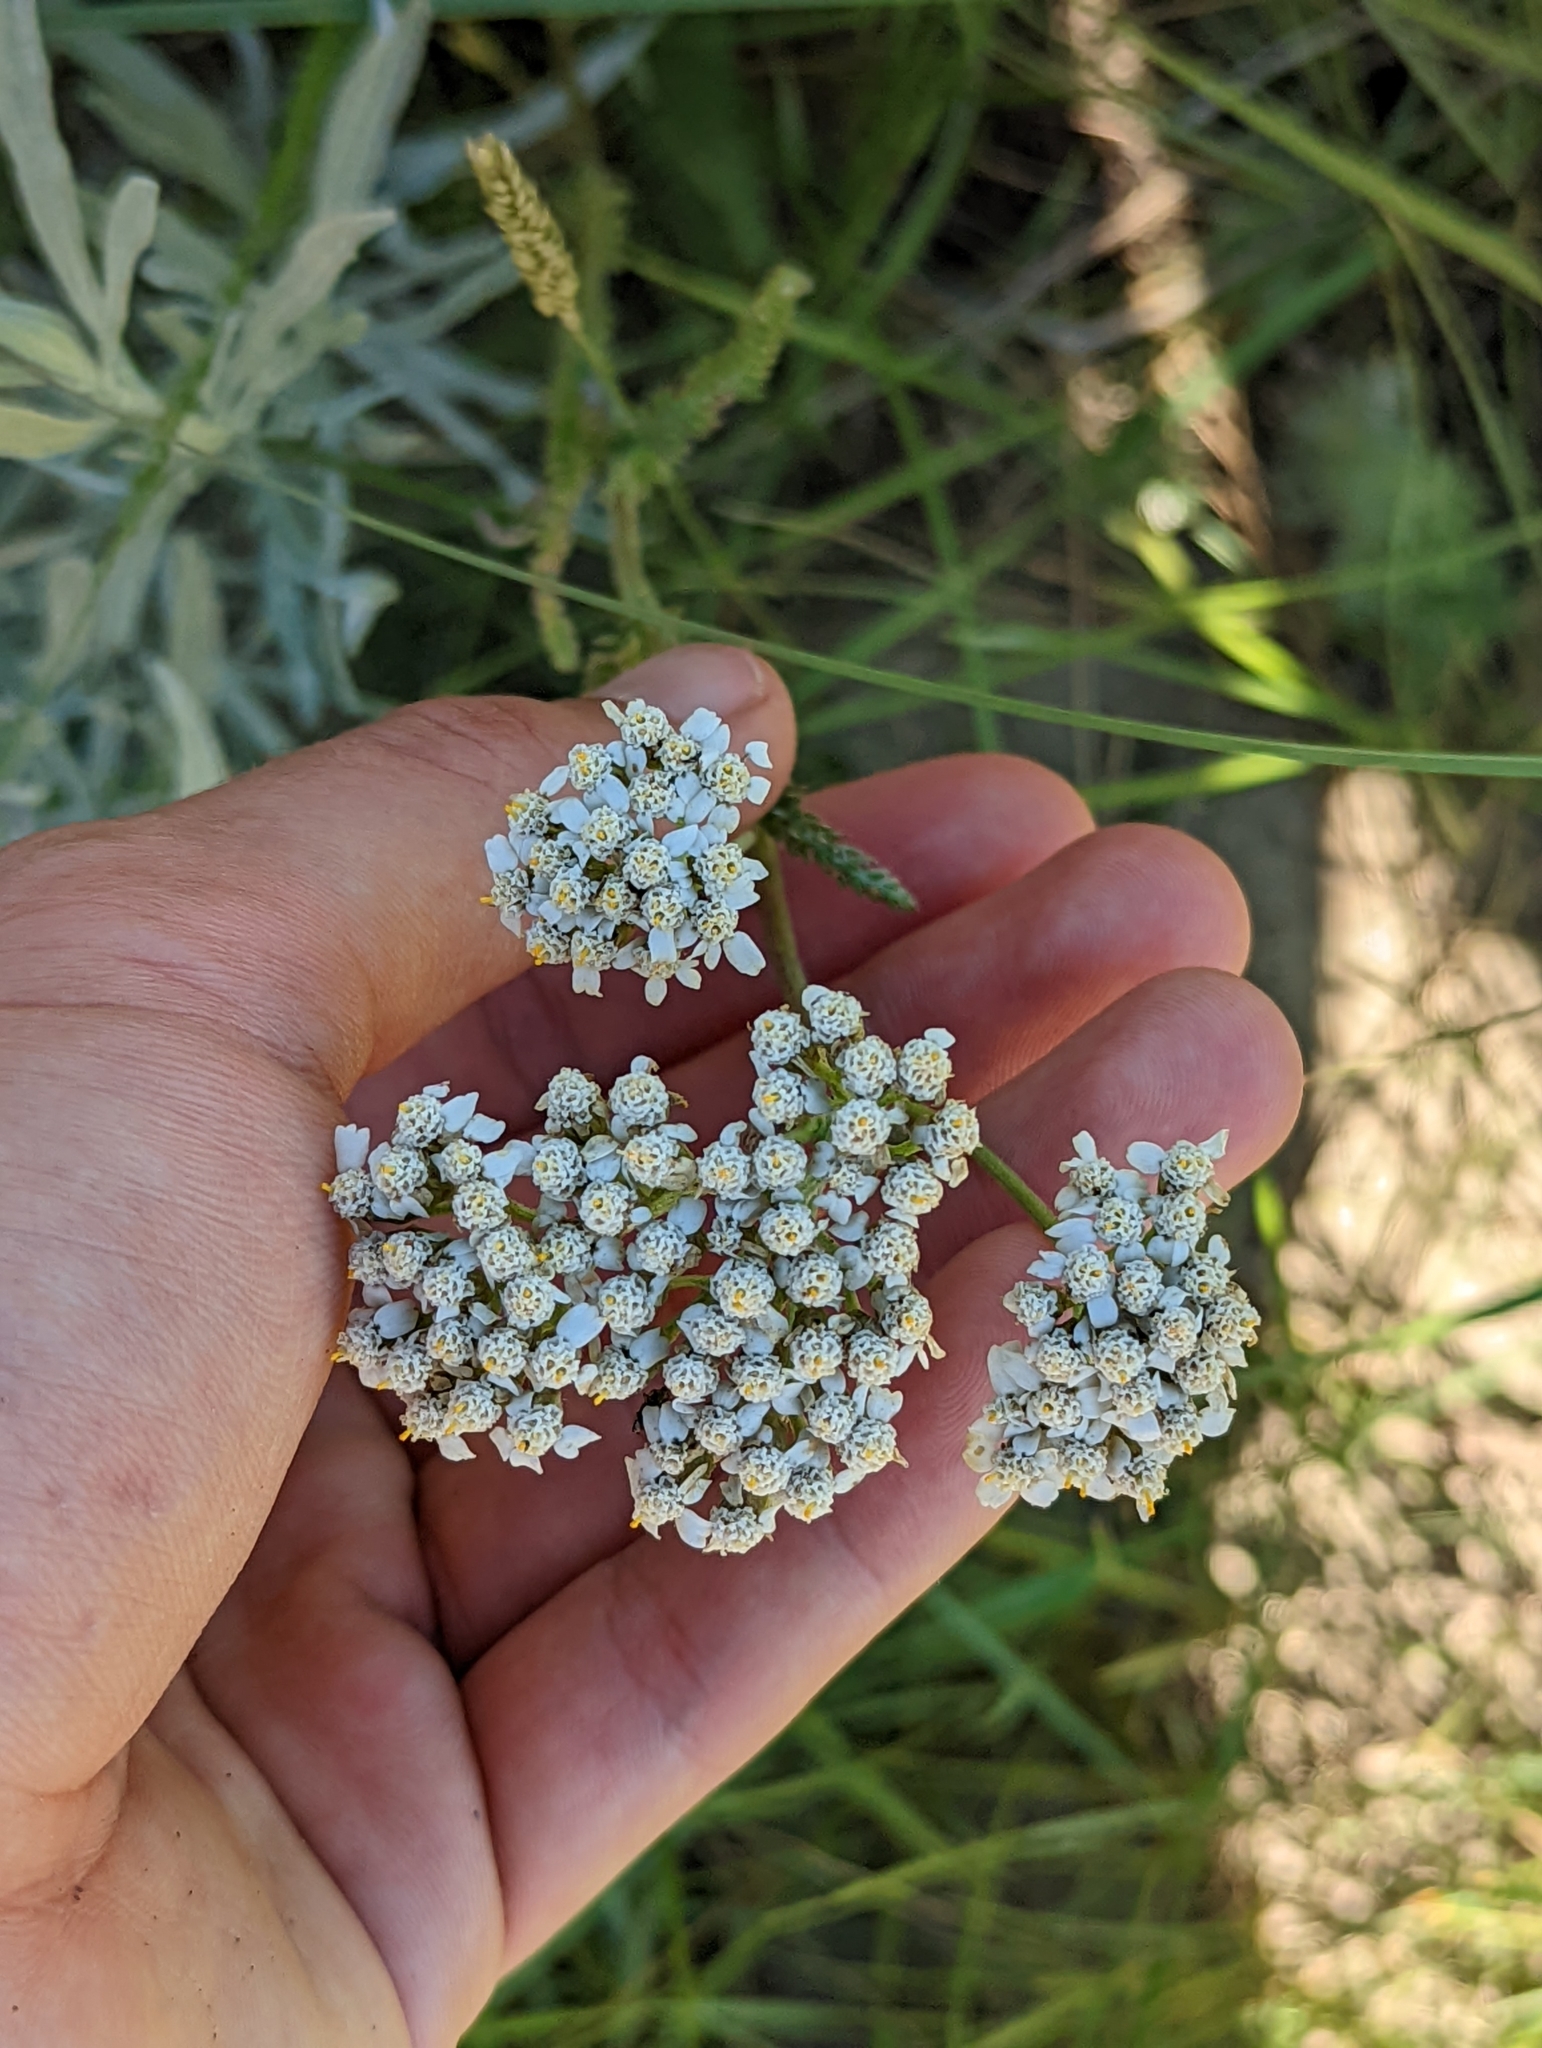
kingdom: Plantae
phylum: Tracheophyta
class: Magnoliopsida
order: Asterales
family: Asteraceae
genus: Achillea
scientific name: Achillea millefolium
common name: Yarrow
